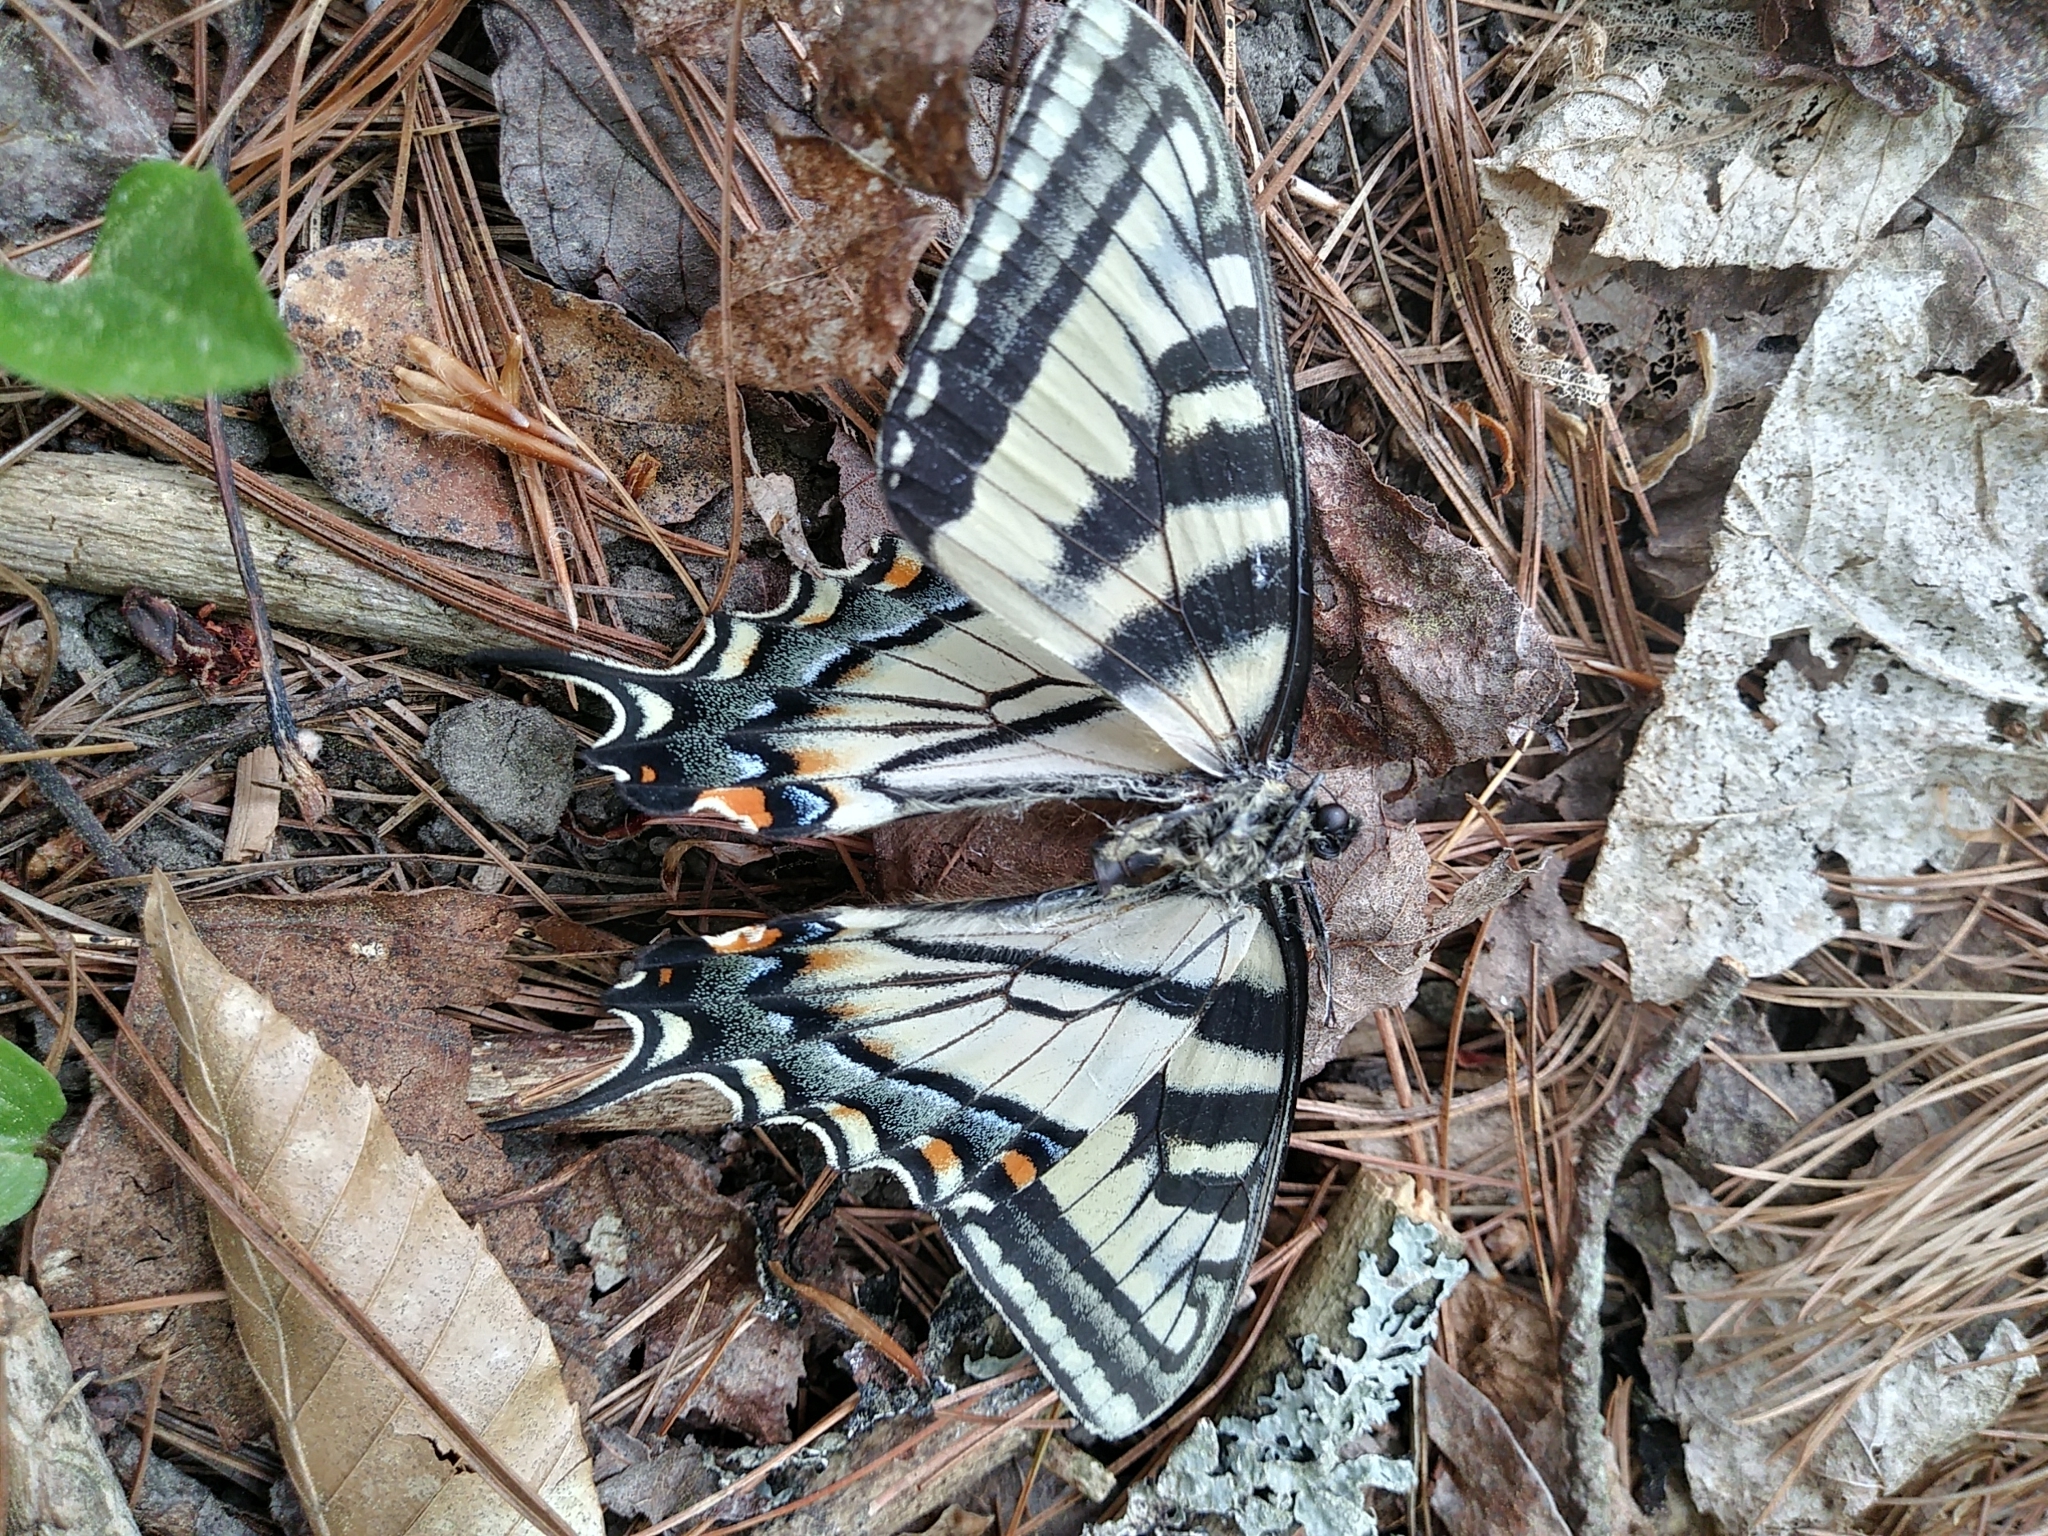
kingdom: Animalia
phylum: Arthropoda
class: Insecta
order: Lepidoptera
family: Papilionidae
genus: Papilio
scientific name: Papilio canadensis
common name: Canadian tiger swallowtail
